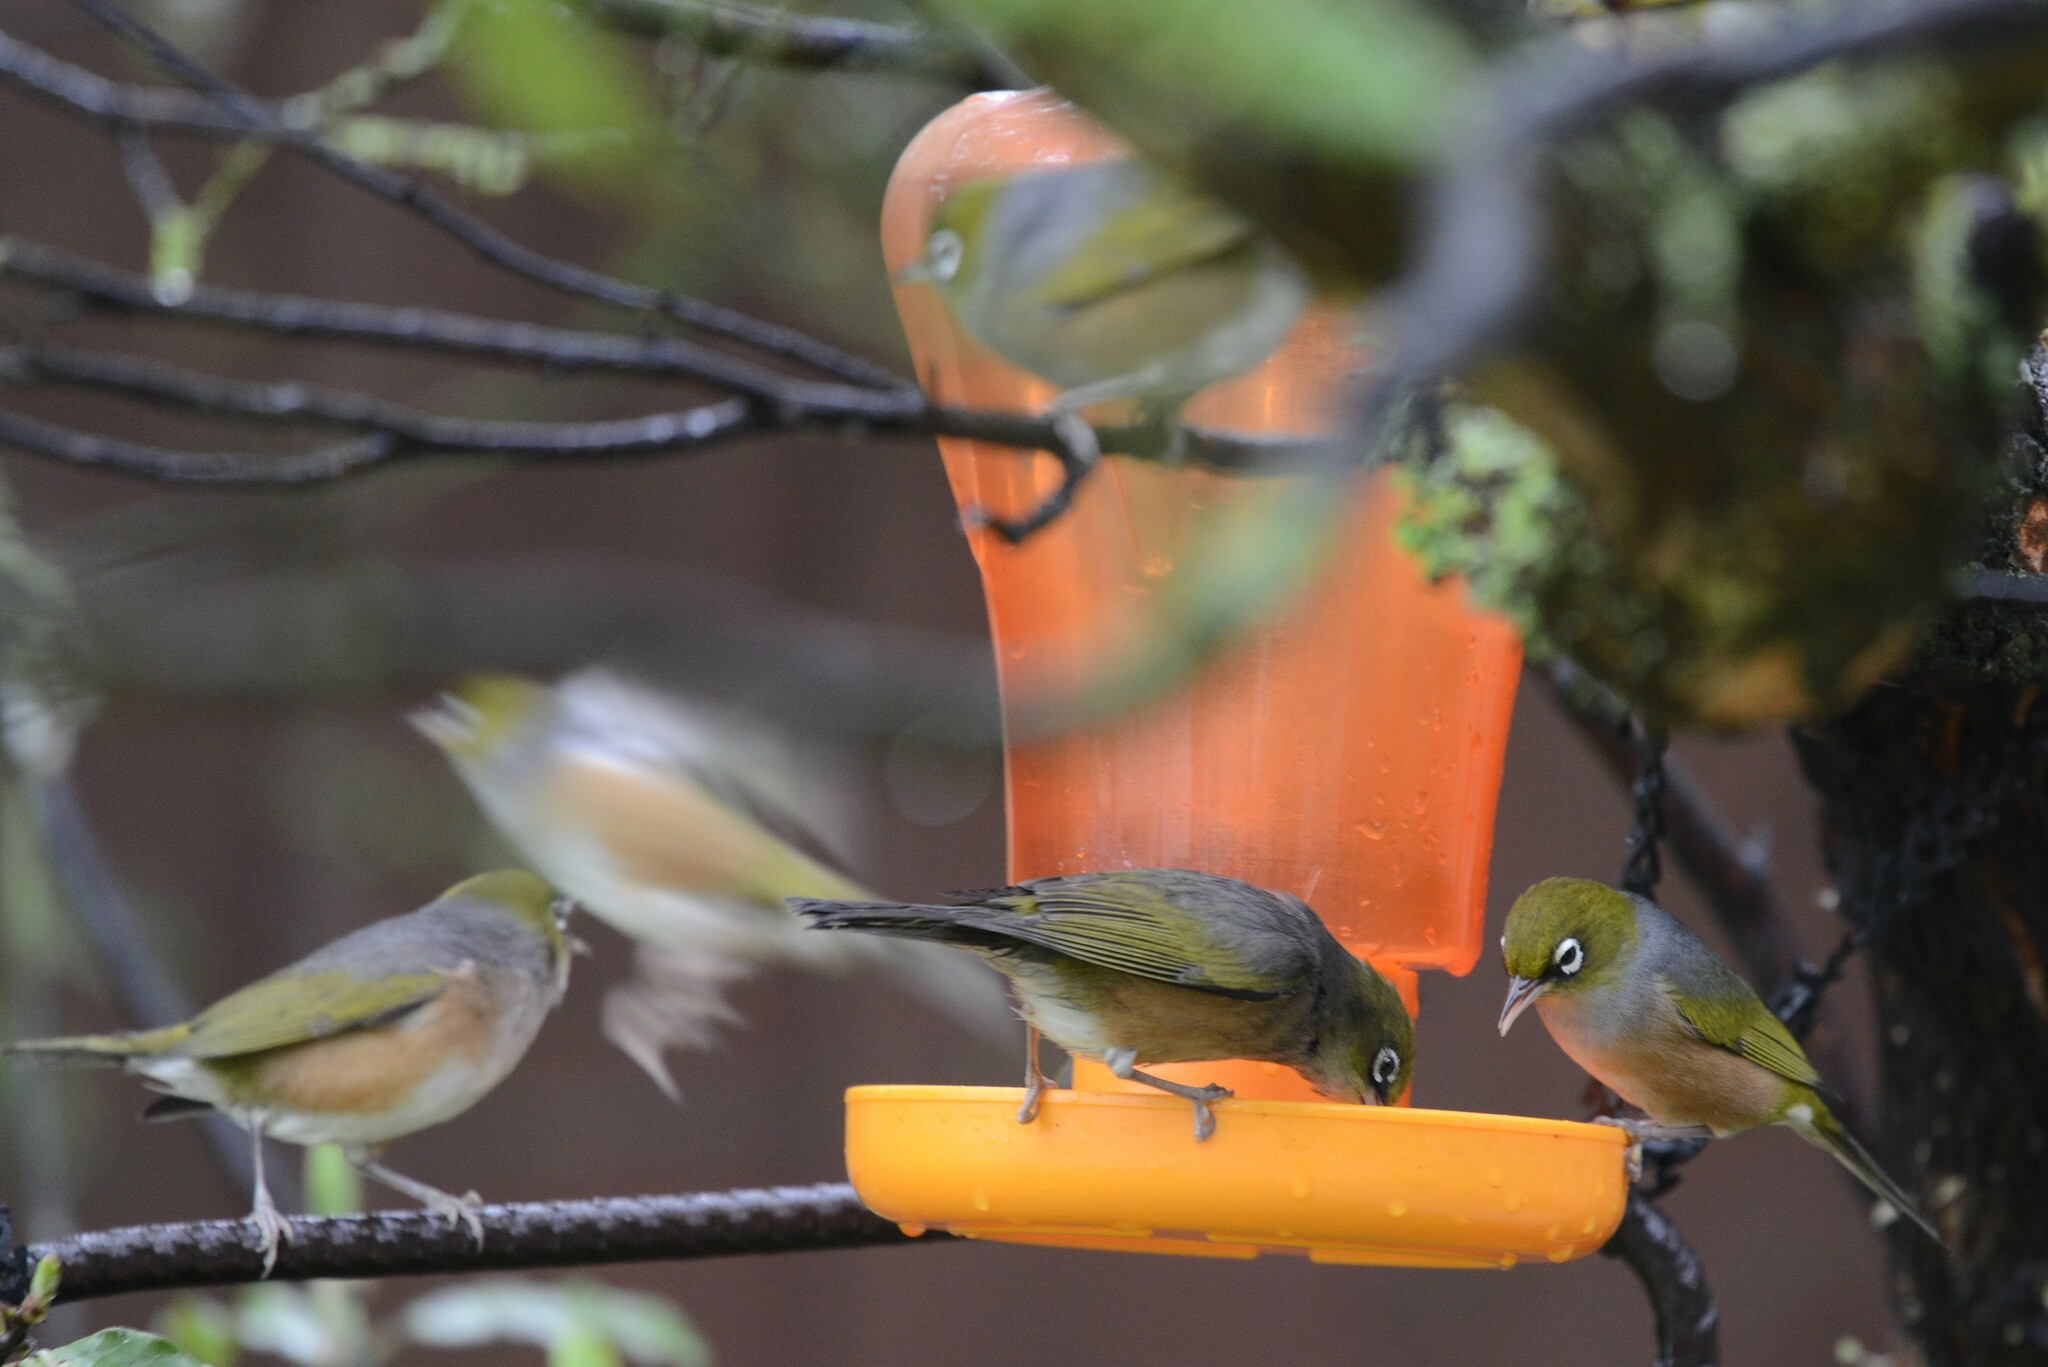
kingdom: Animalia
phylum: Chordata
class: Aves
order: Passeriformes
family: Zosteropidae
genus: Zosterops
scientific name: Zosterops lateralis
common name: Silvereye
